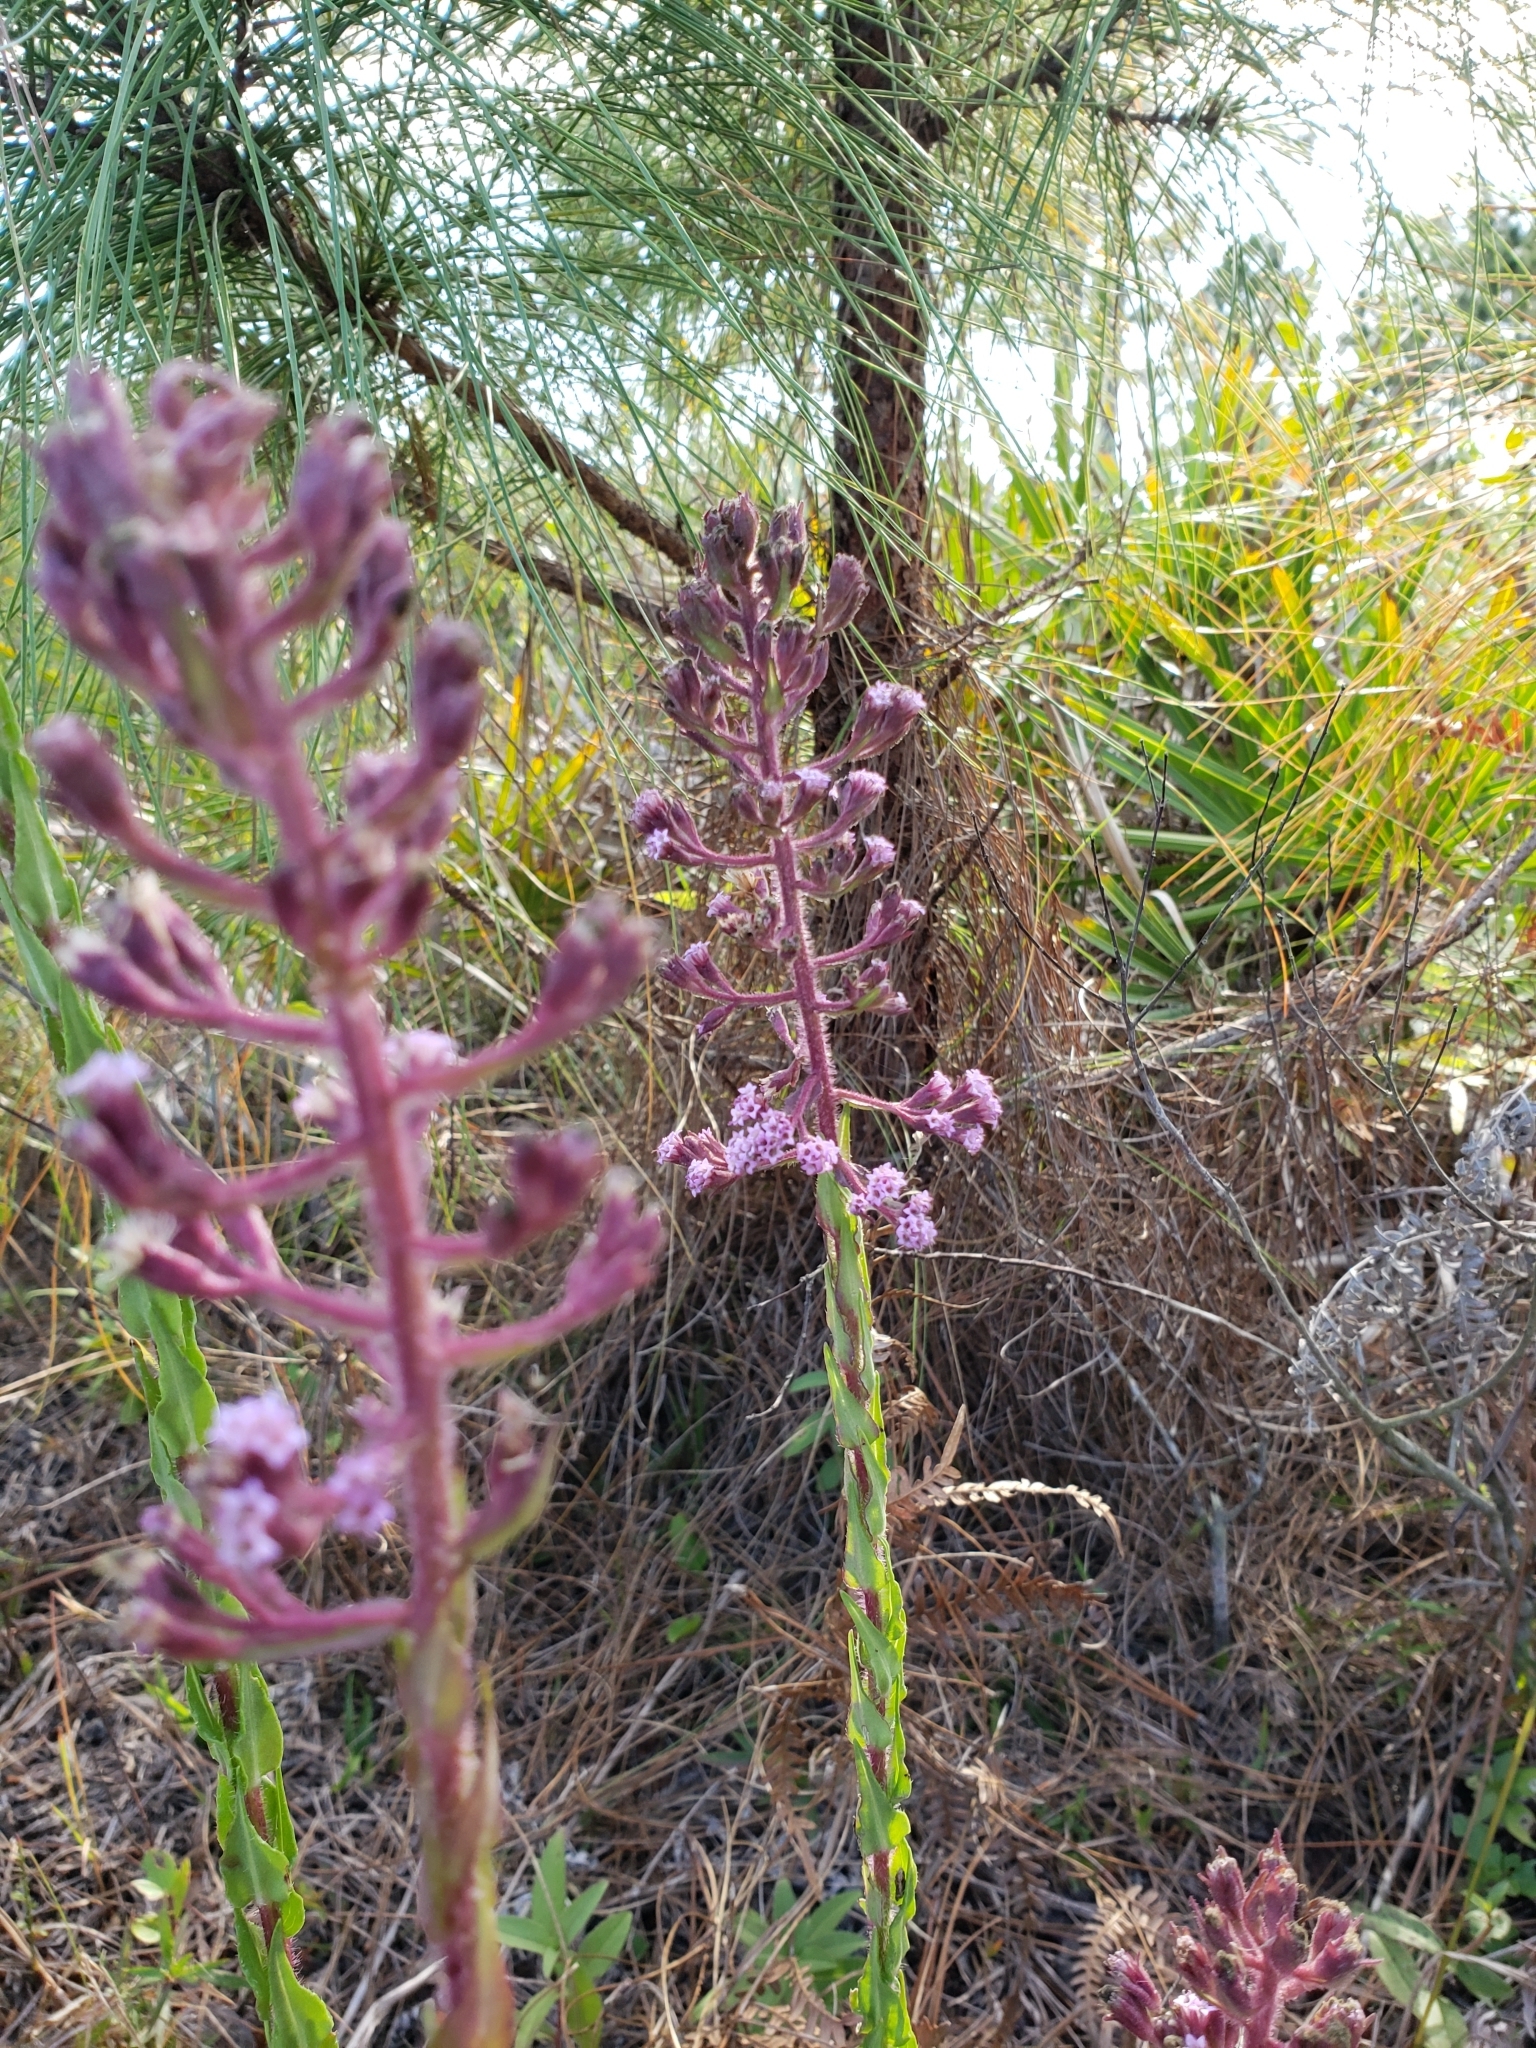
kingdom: Plantae
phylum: Tracheophyta
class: Magnoliopsida
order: Asterales
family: Asteraceae
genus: Carphephorus
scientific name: Carphephorus paniculatus
